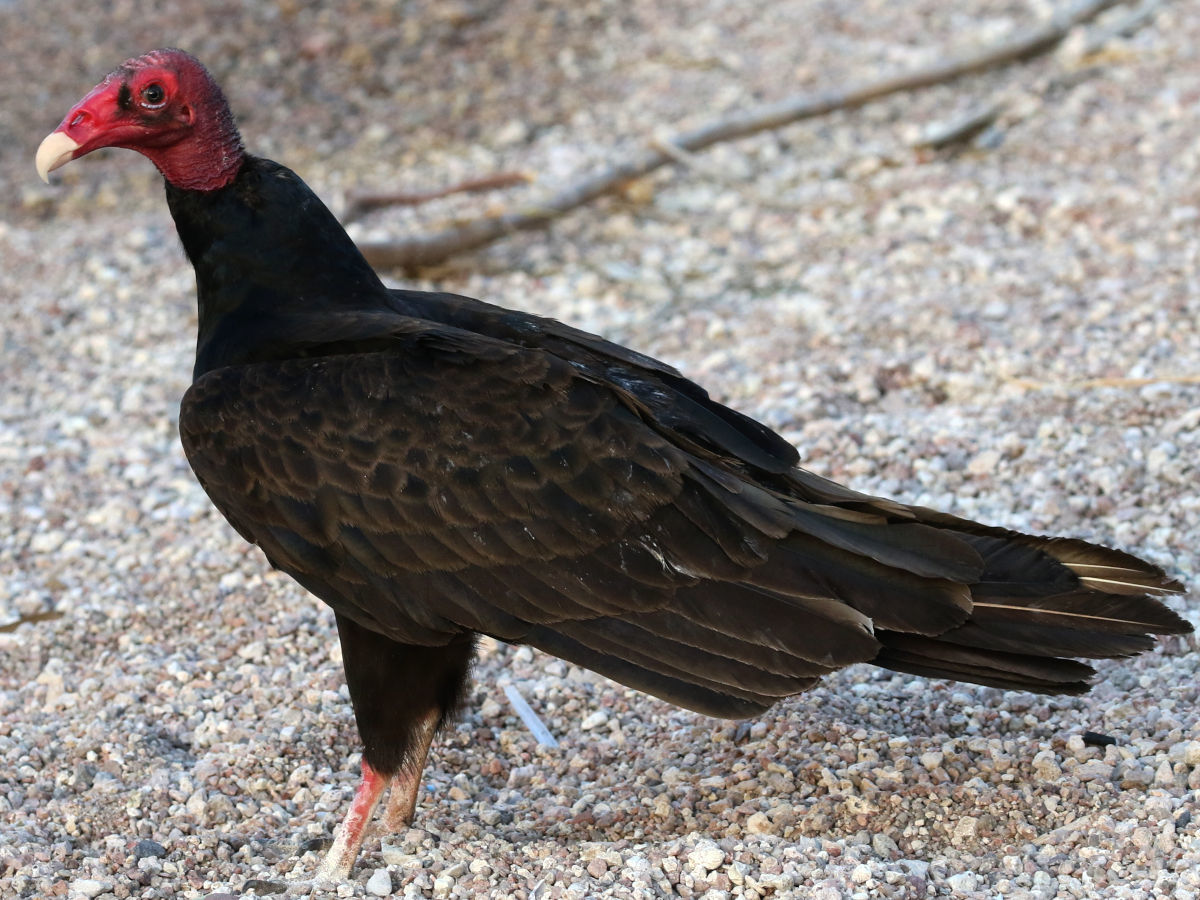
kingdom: Animalia
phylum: Chordata
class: Aves
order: Accipitriformes
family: Cathartidae
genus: Cathartes
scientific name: Cathartes aura
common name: Turkey vulture
